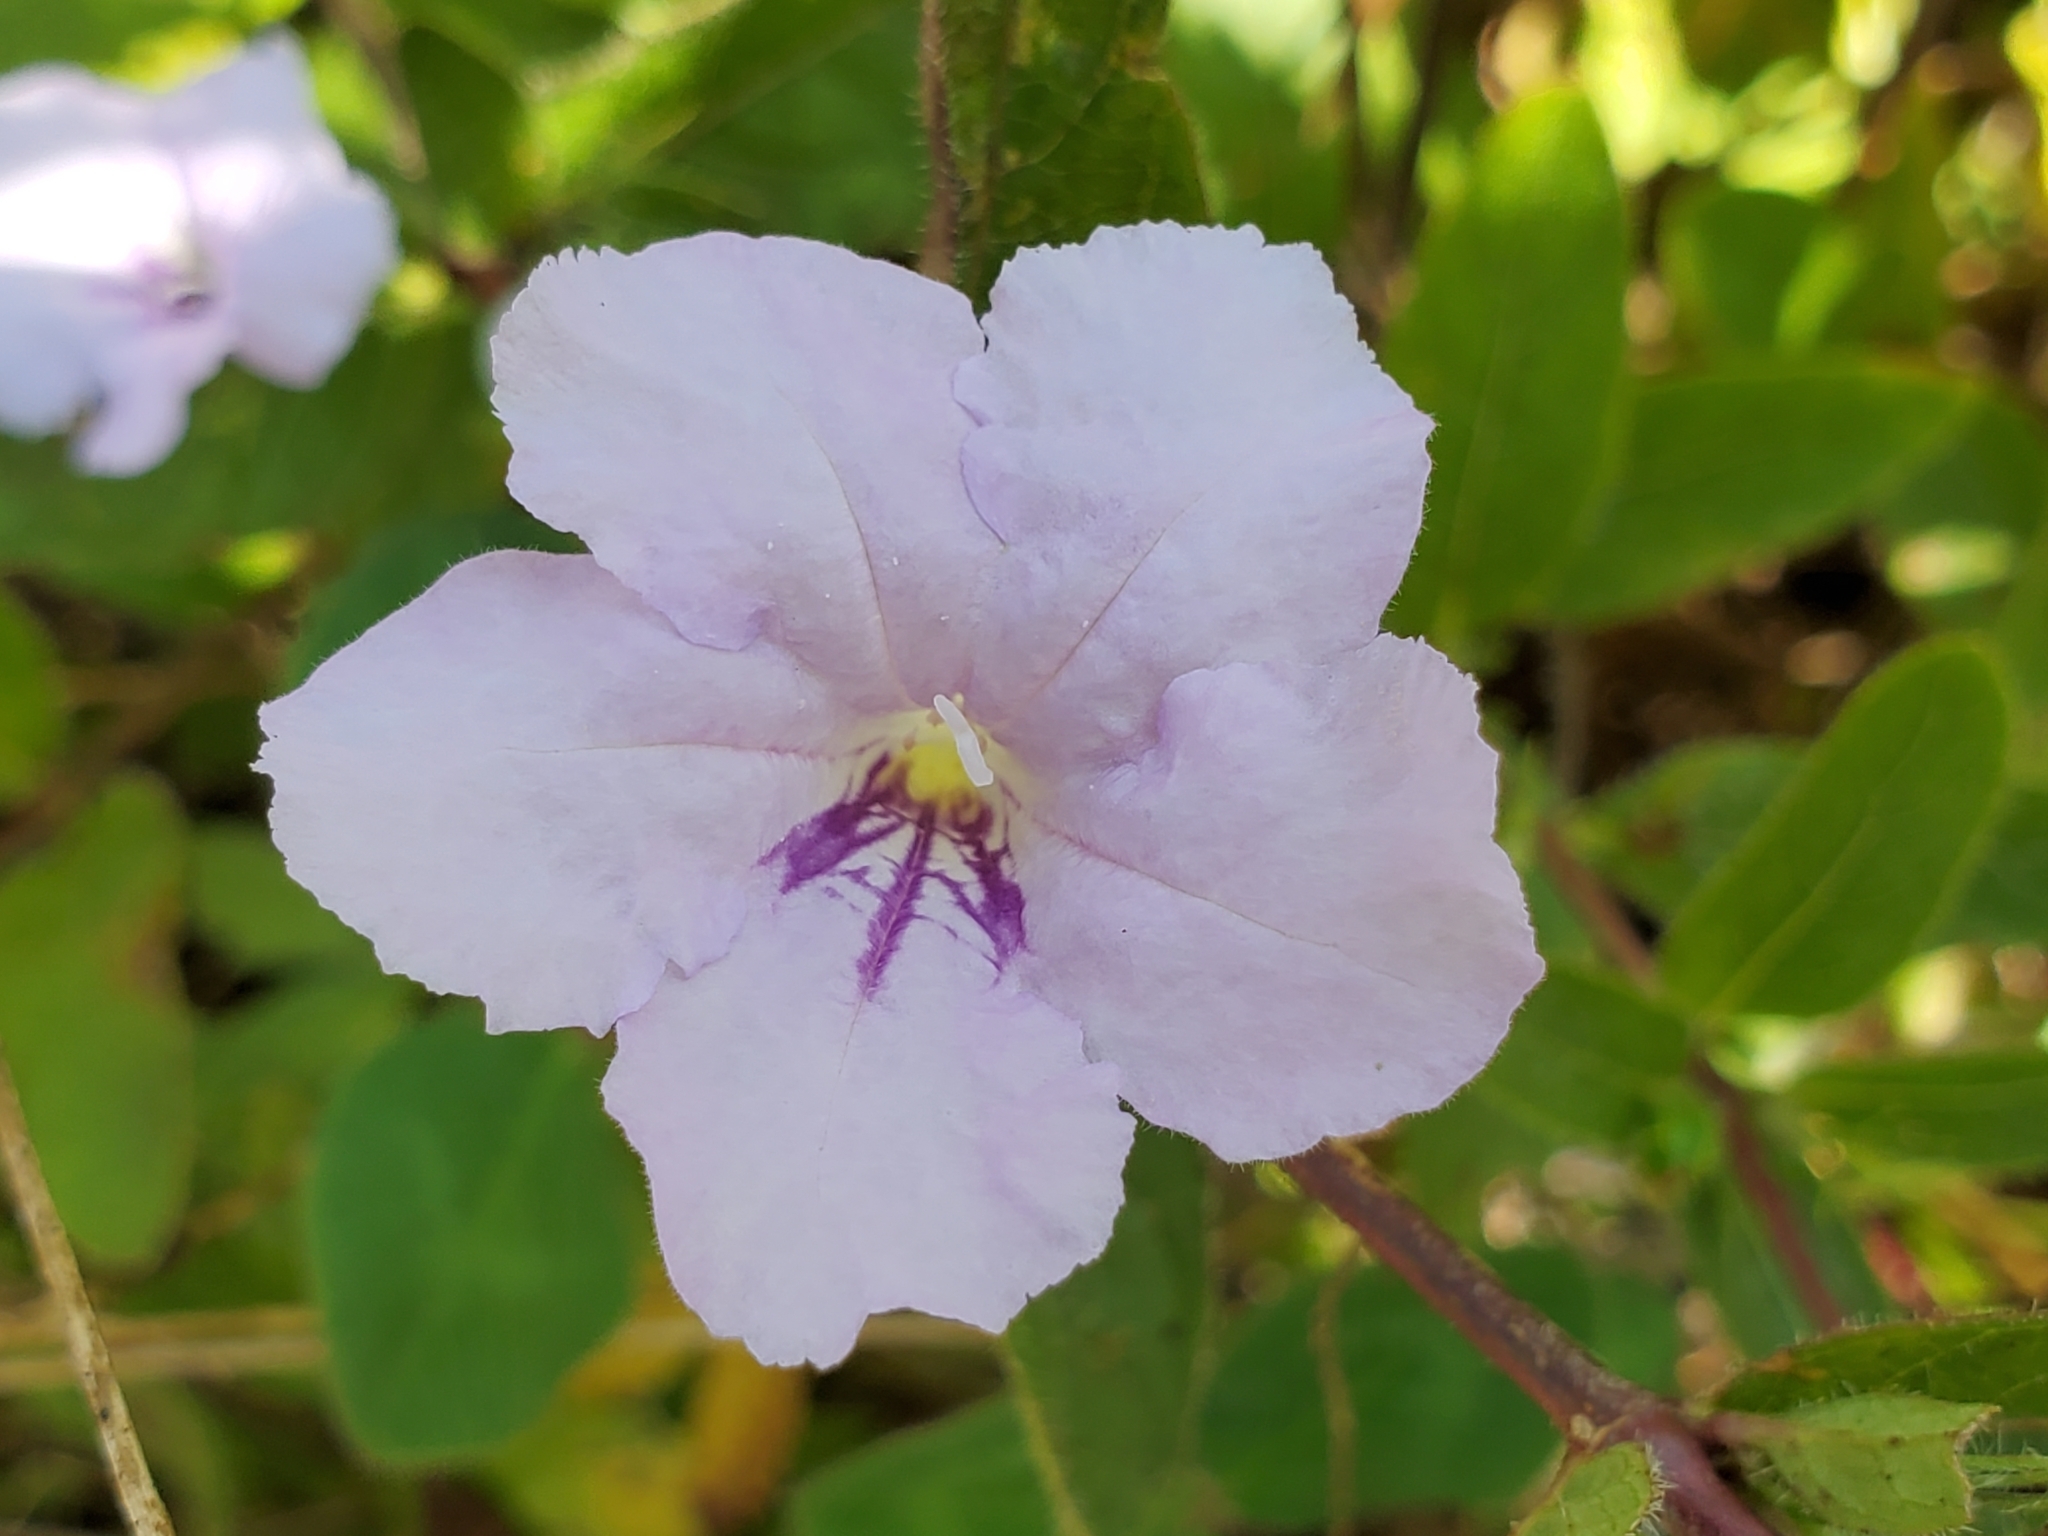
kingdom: Plantae
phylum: Tracheophyta
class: Magnoliopsida
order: Lamiales
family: Acanthaceae
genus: Ruellia
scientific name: Ruellia humilis
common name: Fringe-leaf ruellia
